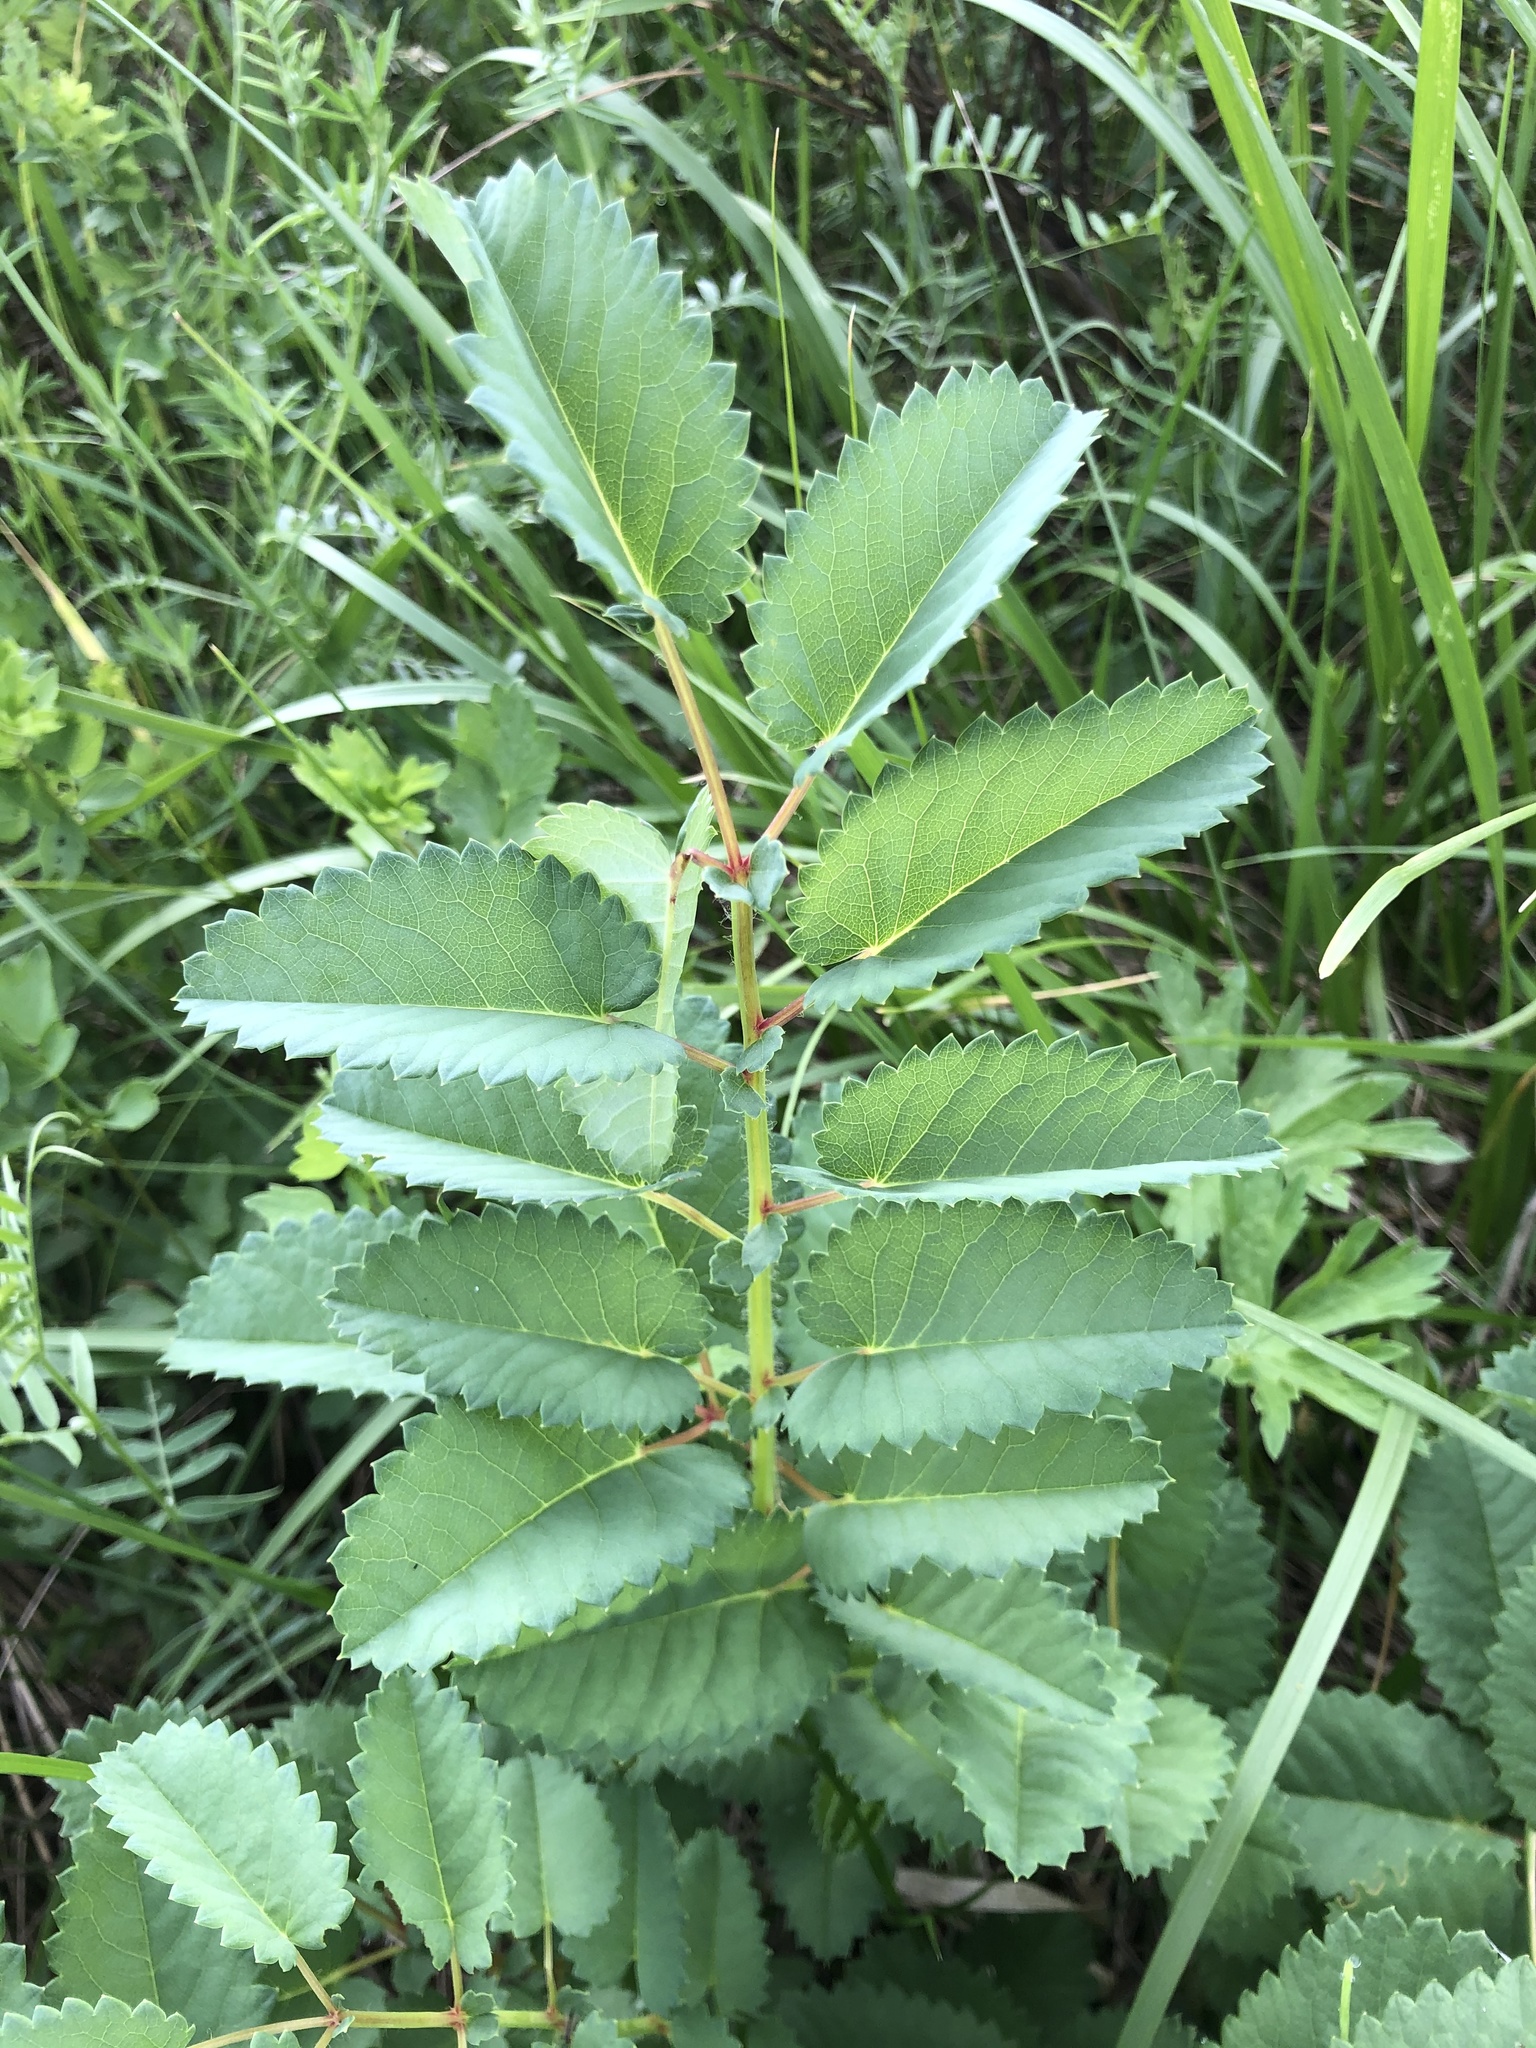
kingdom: Plantae
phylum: Tracheophyta
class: Magnoliopsida
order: Rosales
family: Rosaceae
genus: Sanguisorba
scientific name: Sanguisorba officinalis
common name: Great burnet
